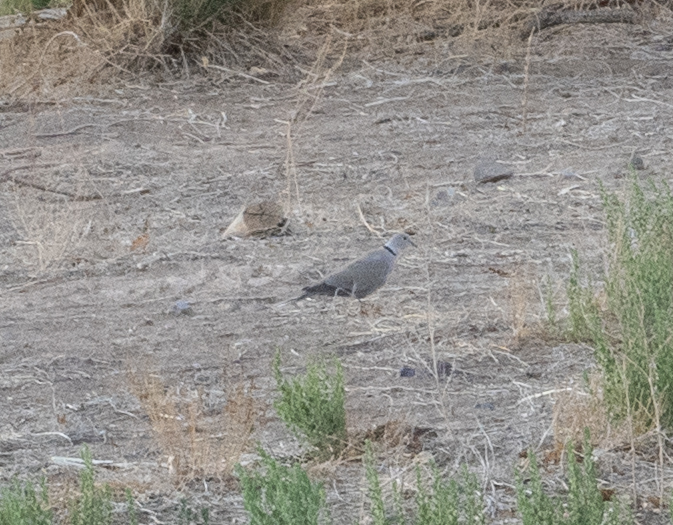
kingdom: Animalia
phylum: Chordata
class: Aves
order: Columbiformes
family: Columbidae
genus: Streptopelia
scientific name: Streptopelia decaocto
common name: Eurasian collared dove
